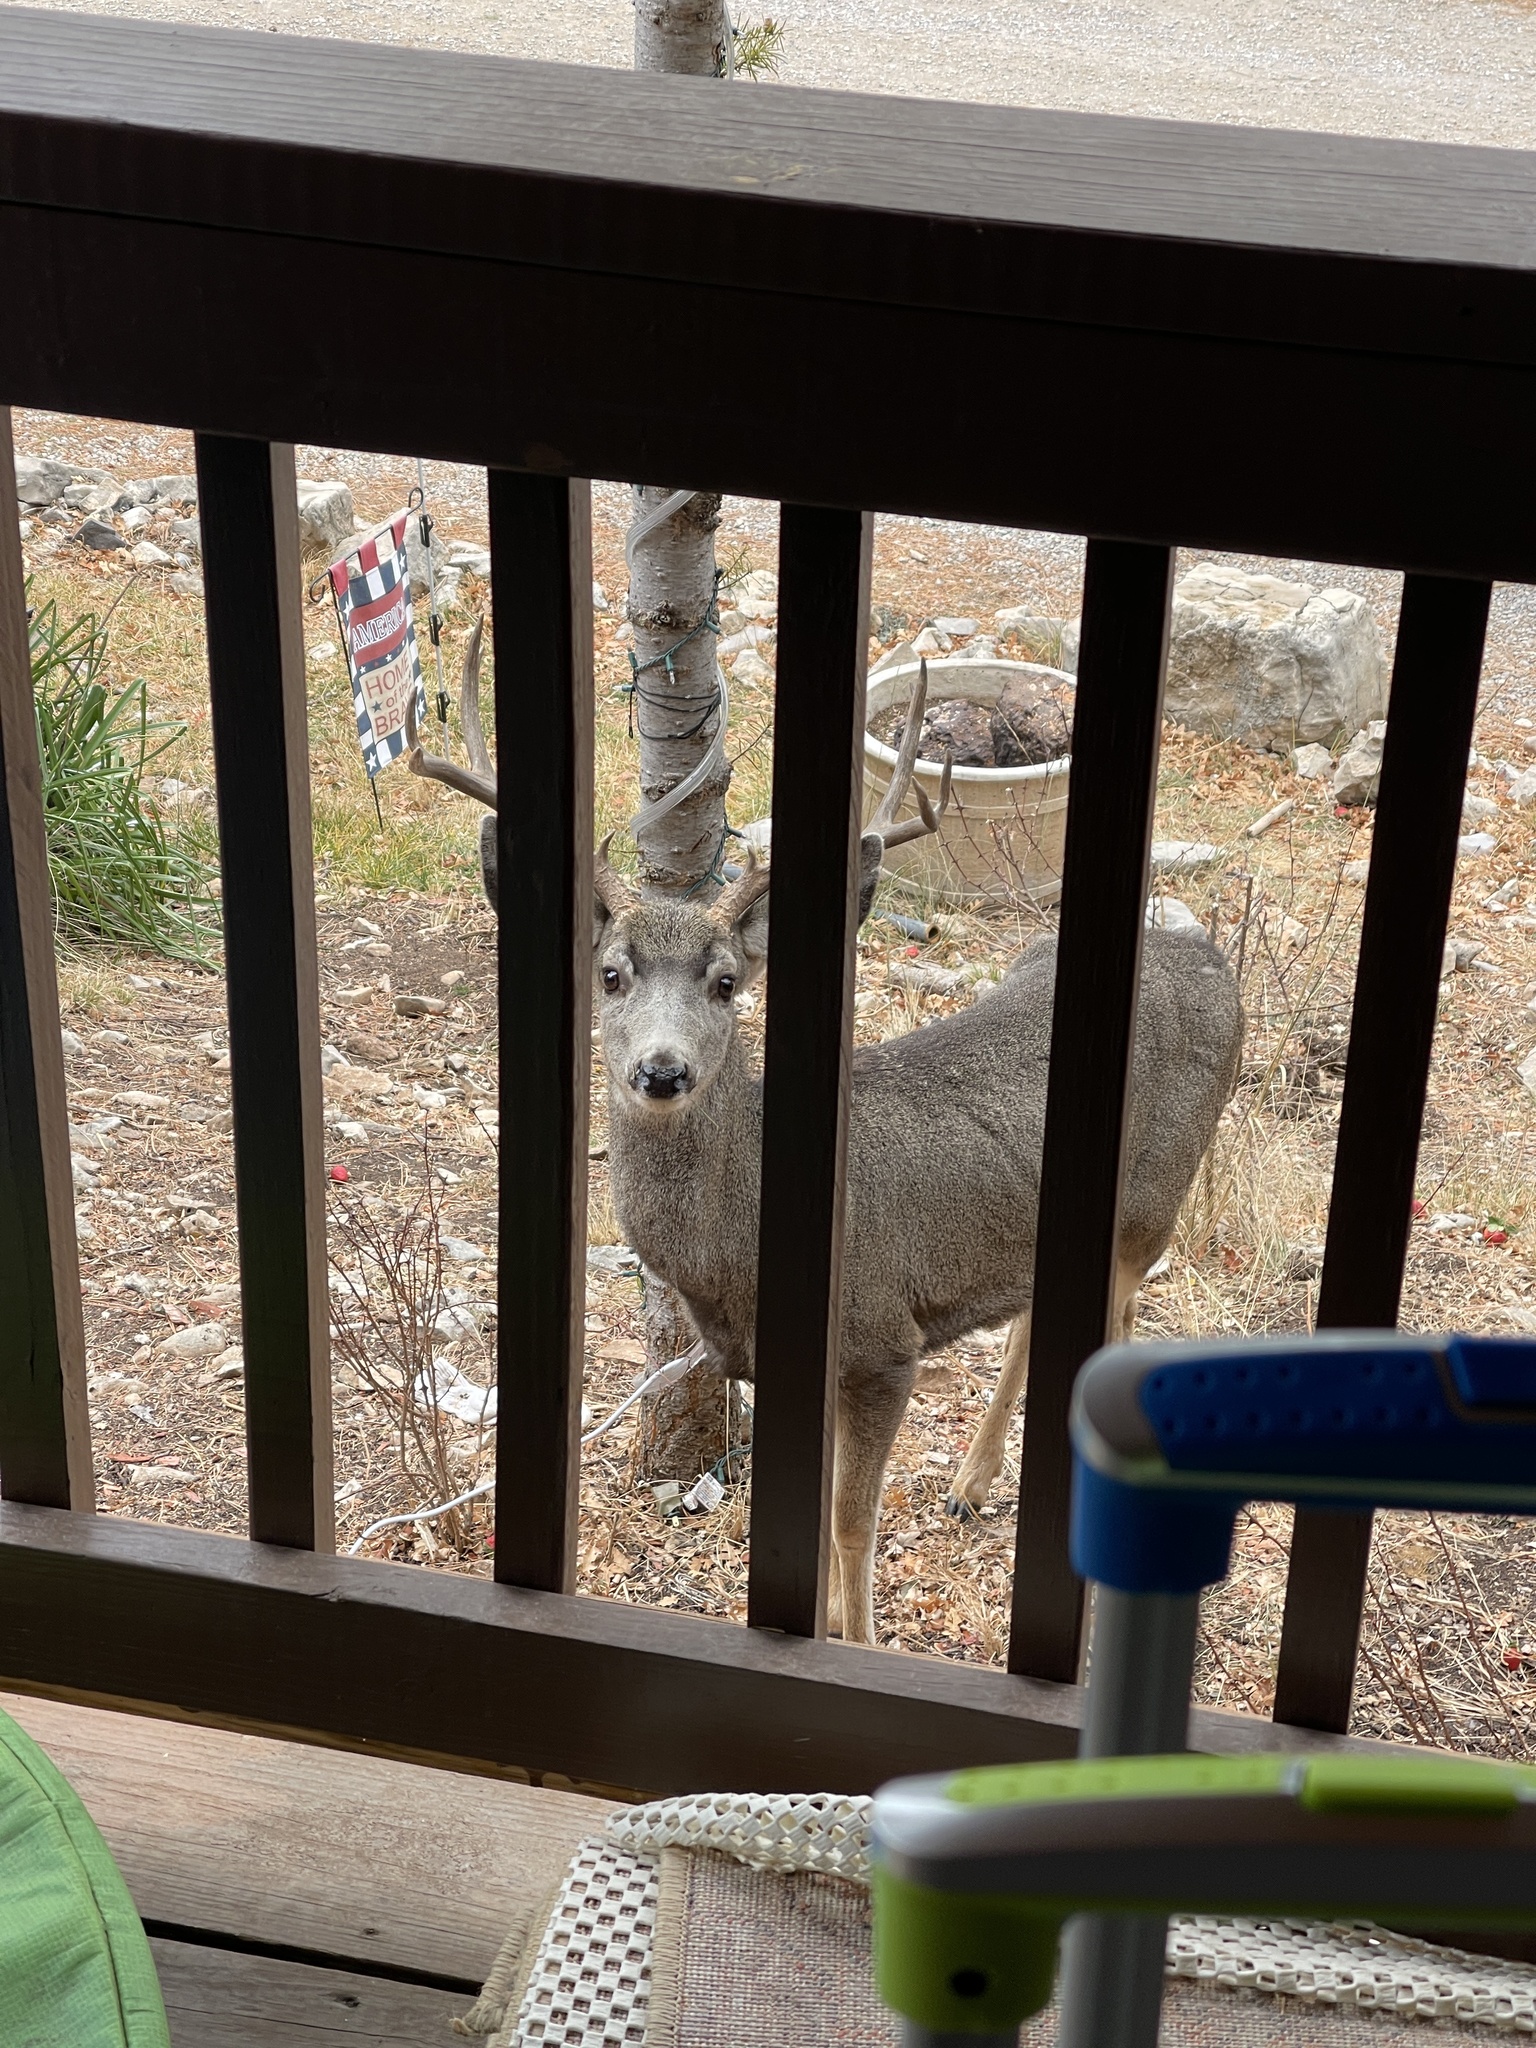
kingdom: Animalia
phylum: Chordata
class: Mammalia
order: Artiodactyla
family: Cervidae
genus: Odocoileus
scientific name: Odocoileus hemionus
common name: Mule deer
